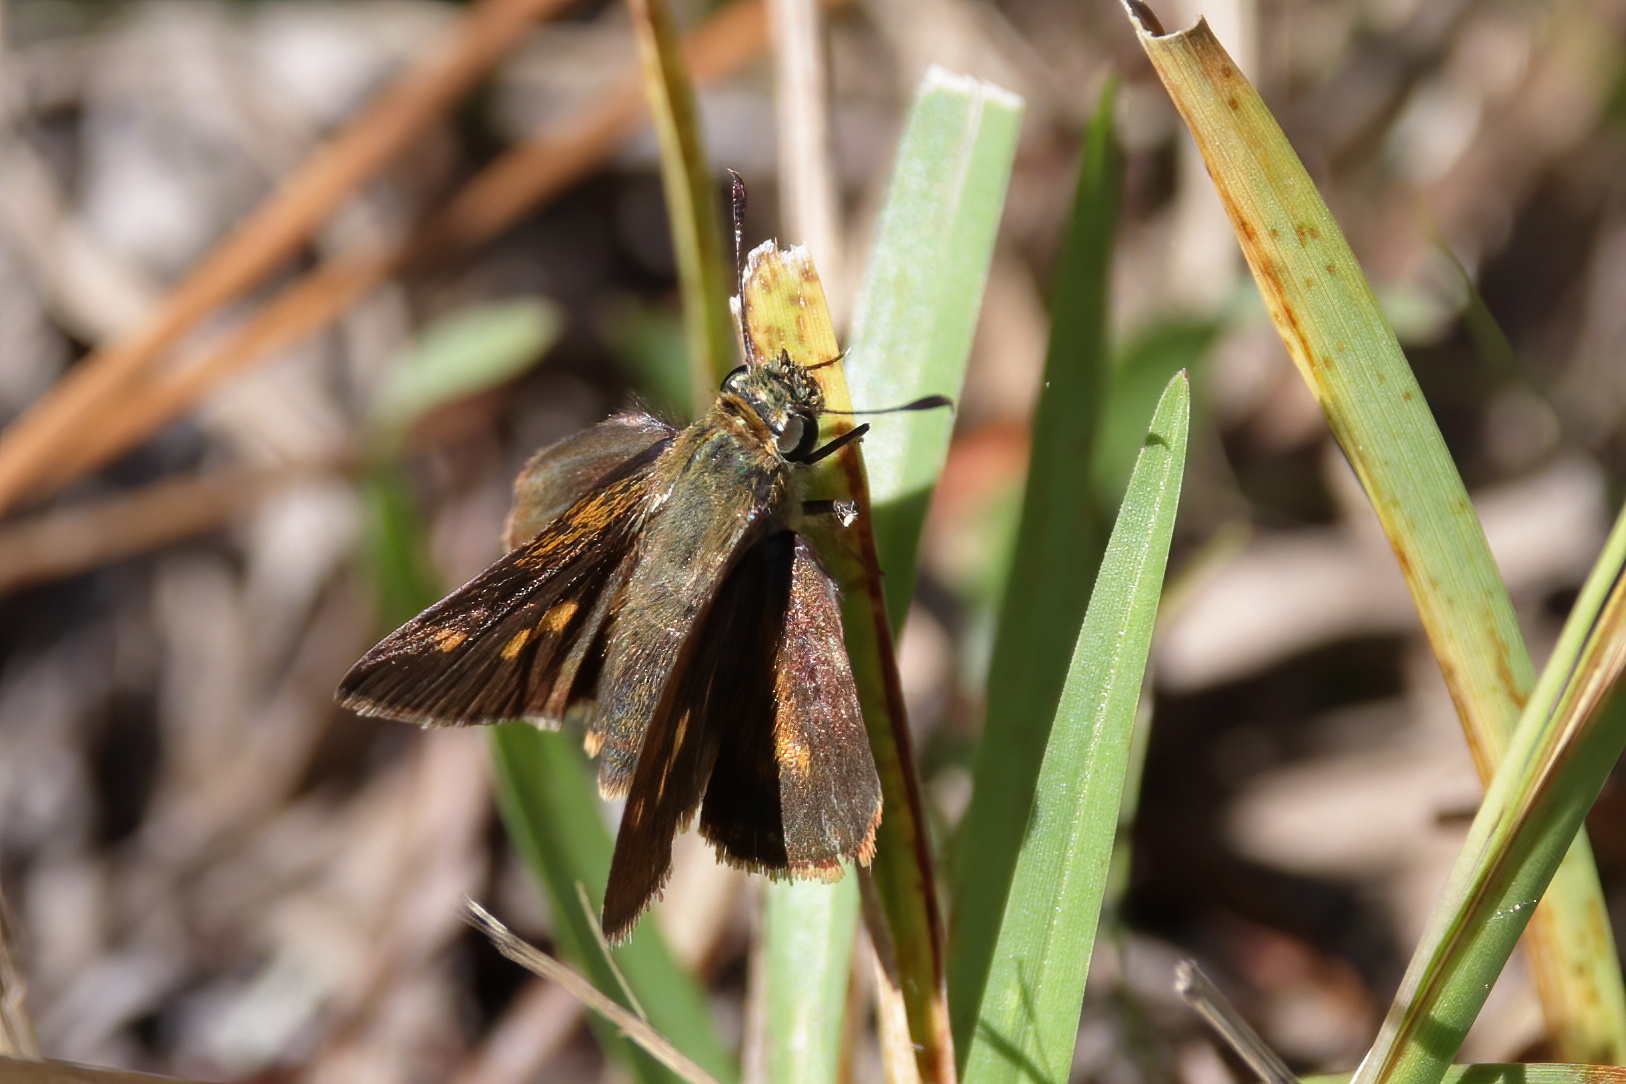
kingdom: Animalia
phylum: Arthropoda
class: Insecta
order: Lepidoptera
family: Hesperiidae
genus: Polites
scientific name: Polites otho
